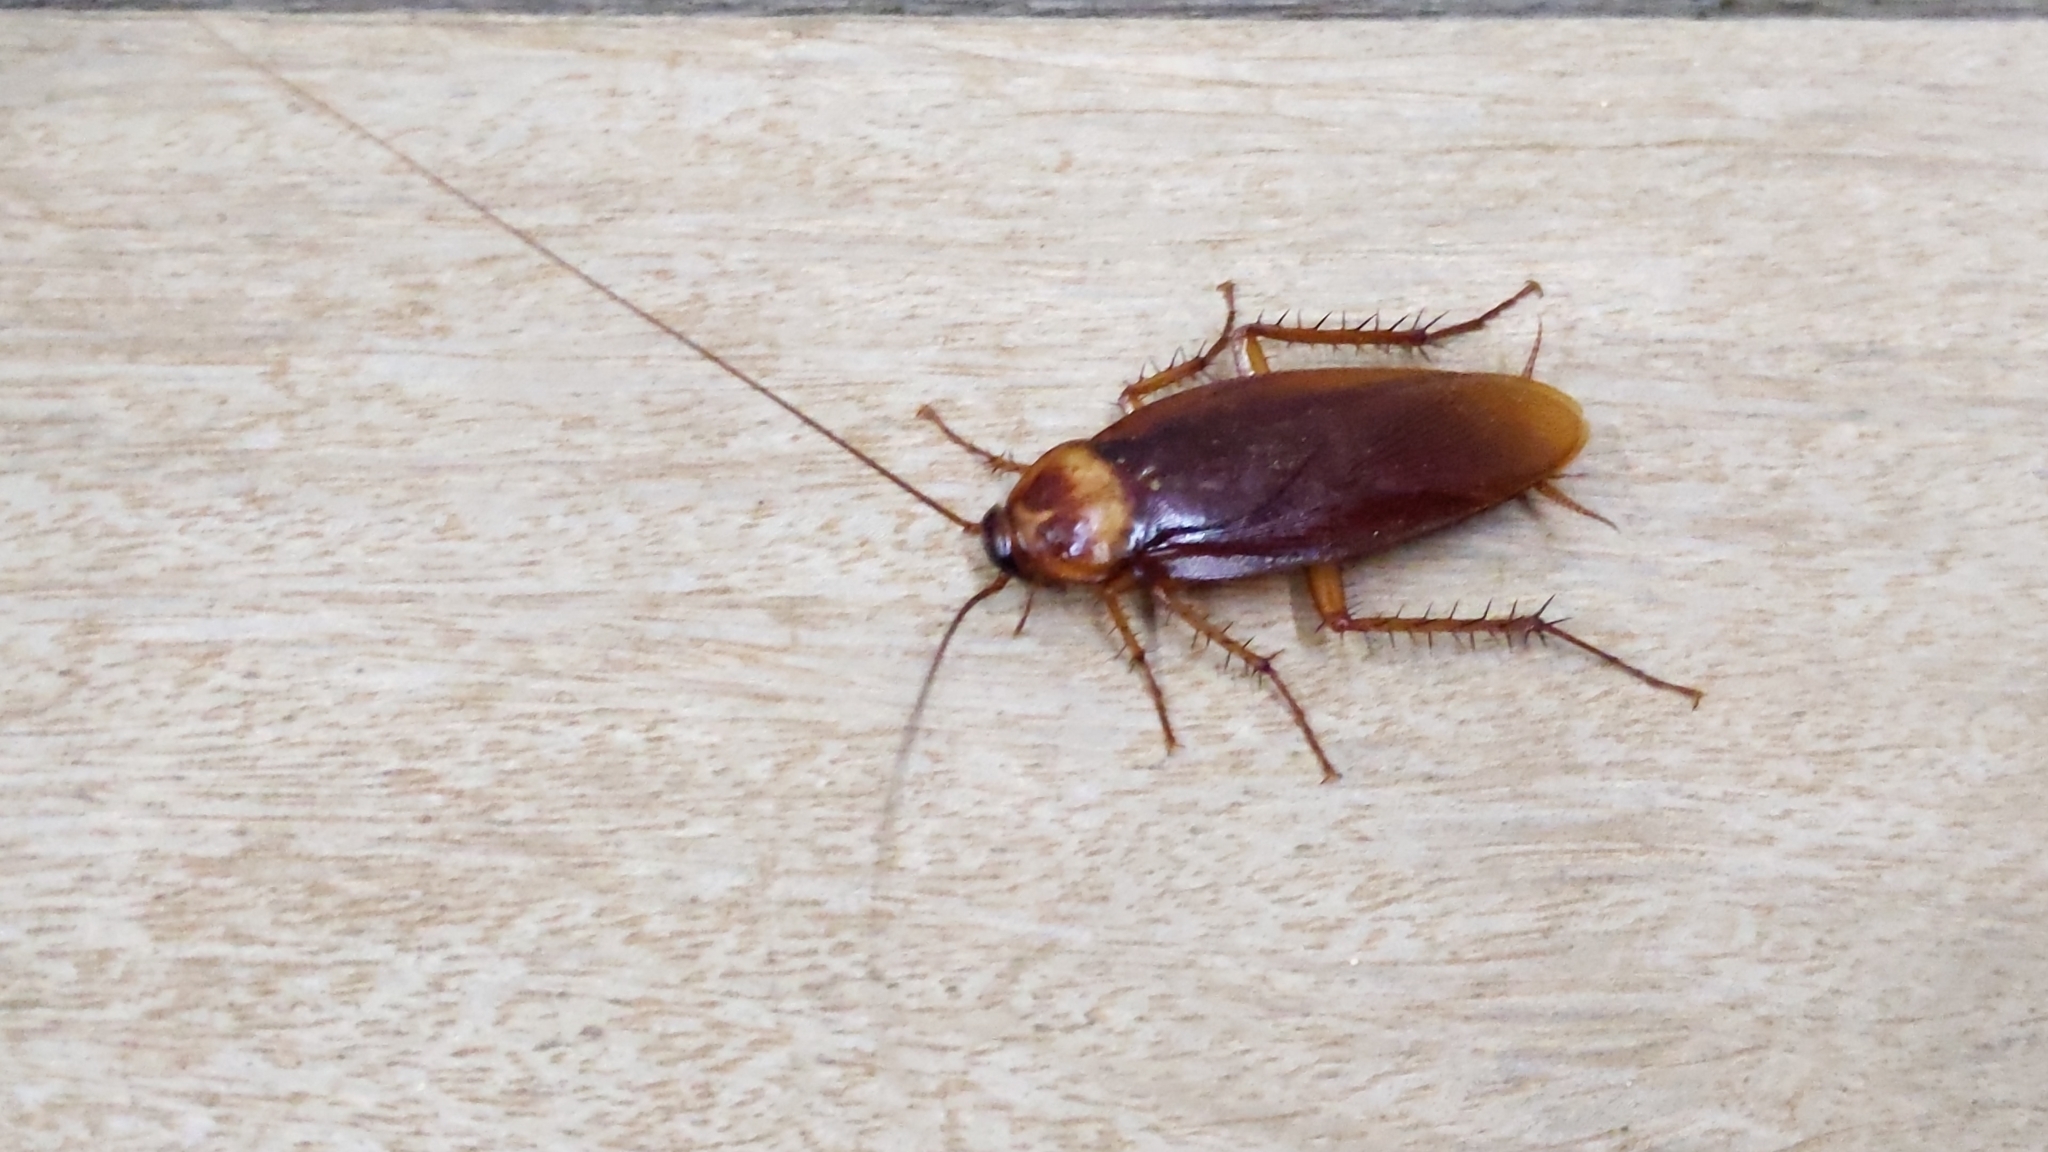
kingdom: Animalia
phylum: Arthropoda
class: Insecta
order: Blattodea
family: Blattidae
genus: Periplaneta
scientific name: Periplaneta americana
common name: American cockroach
